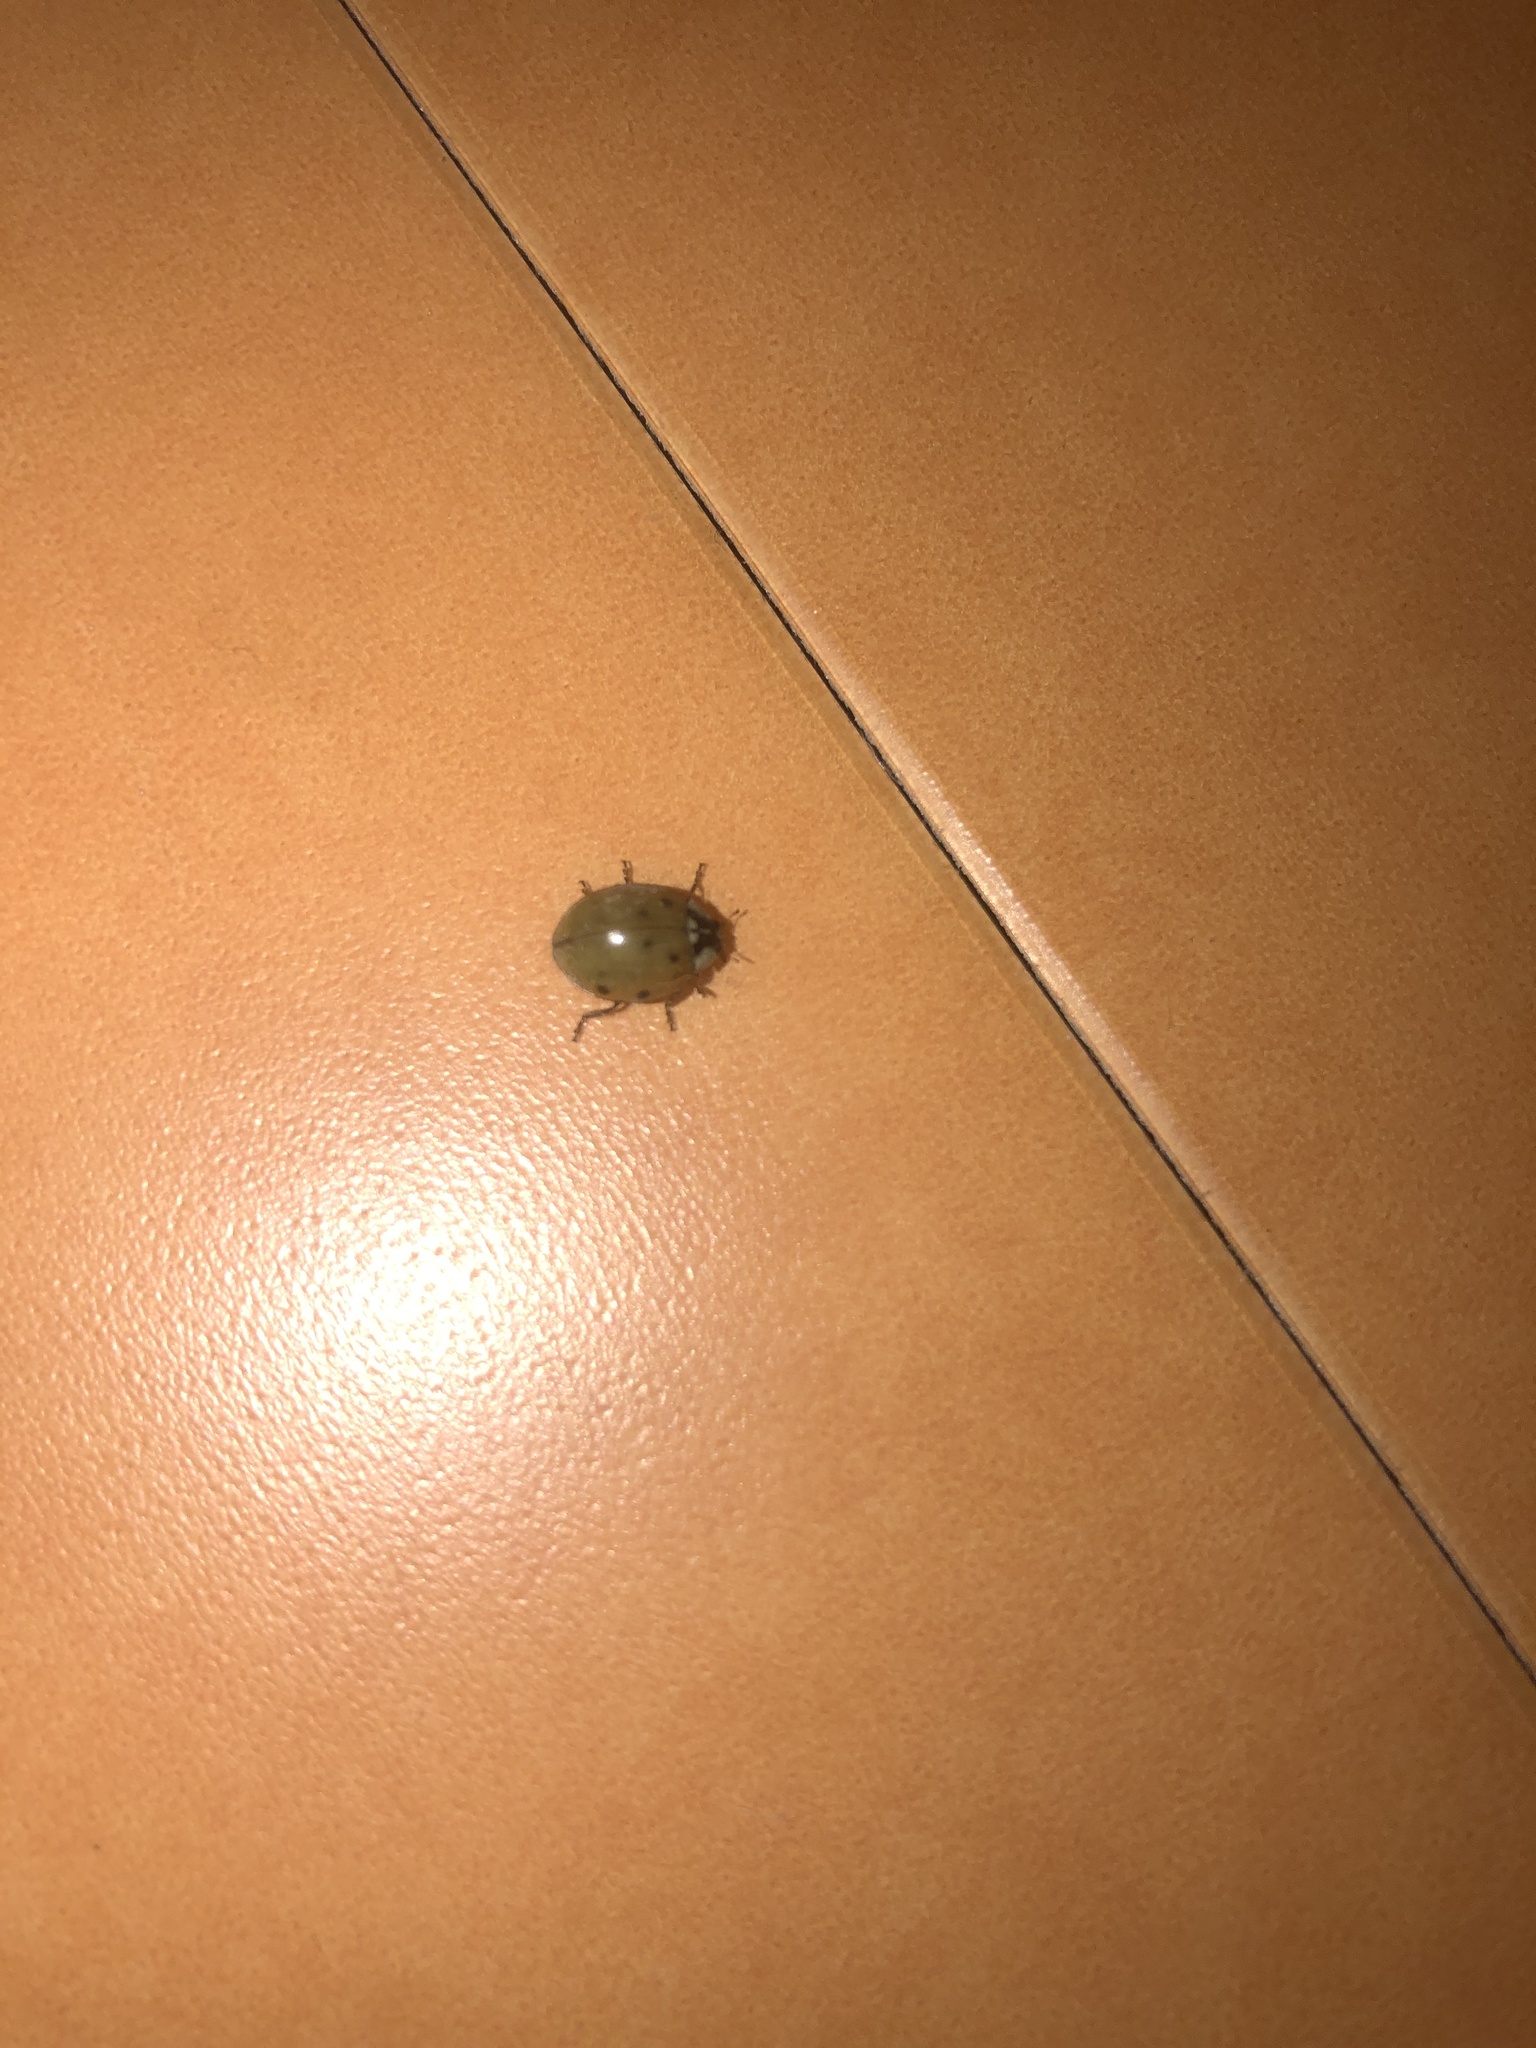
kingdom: Animalia
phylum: Arthropoda
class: Insecta
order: Coleoptera
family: Coccinellidae
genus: Harmonia
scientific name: Harmonia axyridis
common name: Harlequin ladybird
